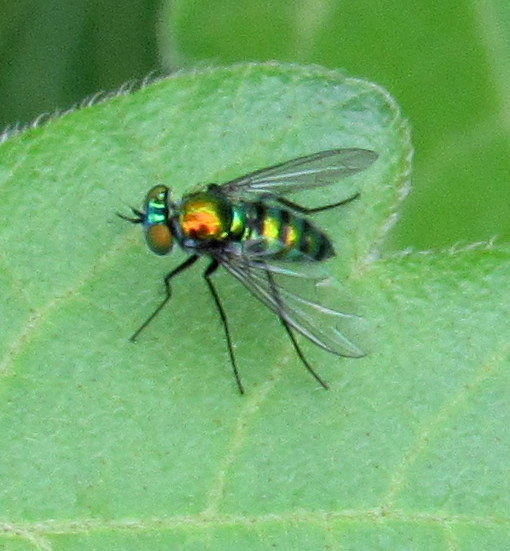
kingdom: Animalia
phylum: Arthropoda
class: Insecta
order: Diptera
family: Dolichopodidae
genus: Condylostylus
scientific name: Condylostylus mundus
